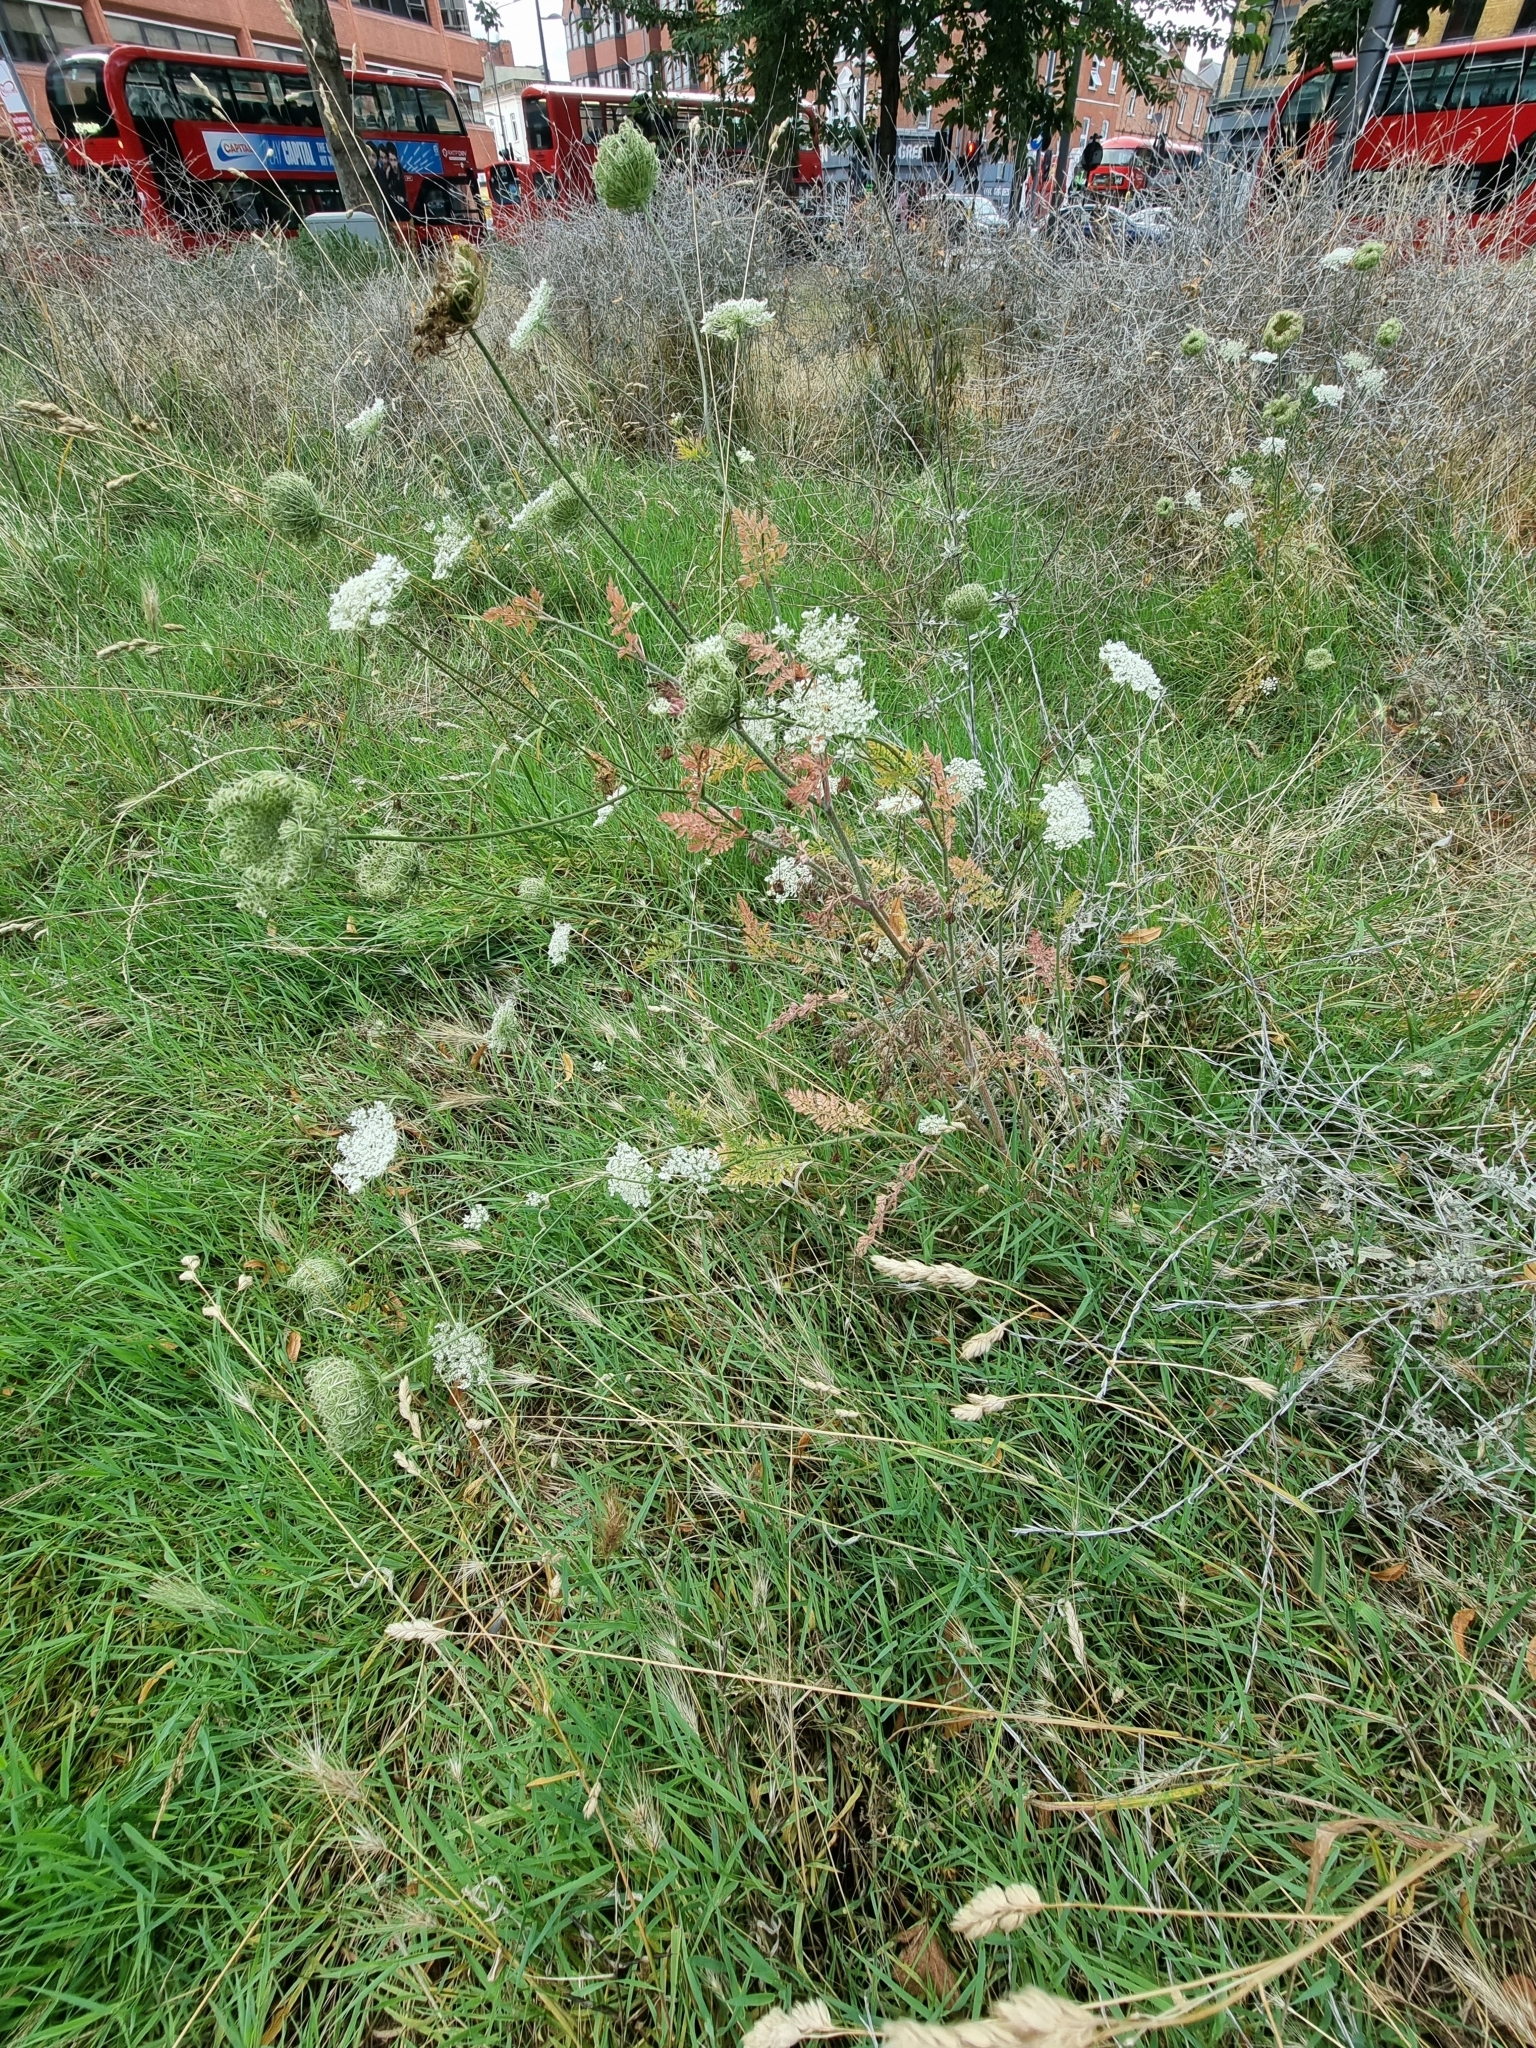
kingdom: Plantae
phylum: Tracheophyta
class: Magnoliopsida
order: Apiales
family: Apiaceae
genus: Daucus
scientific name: Daucus carota
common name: Wild carrot
